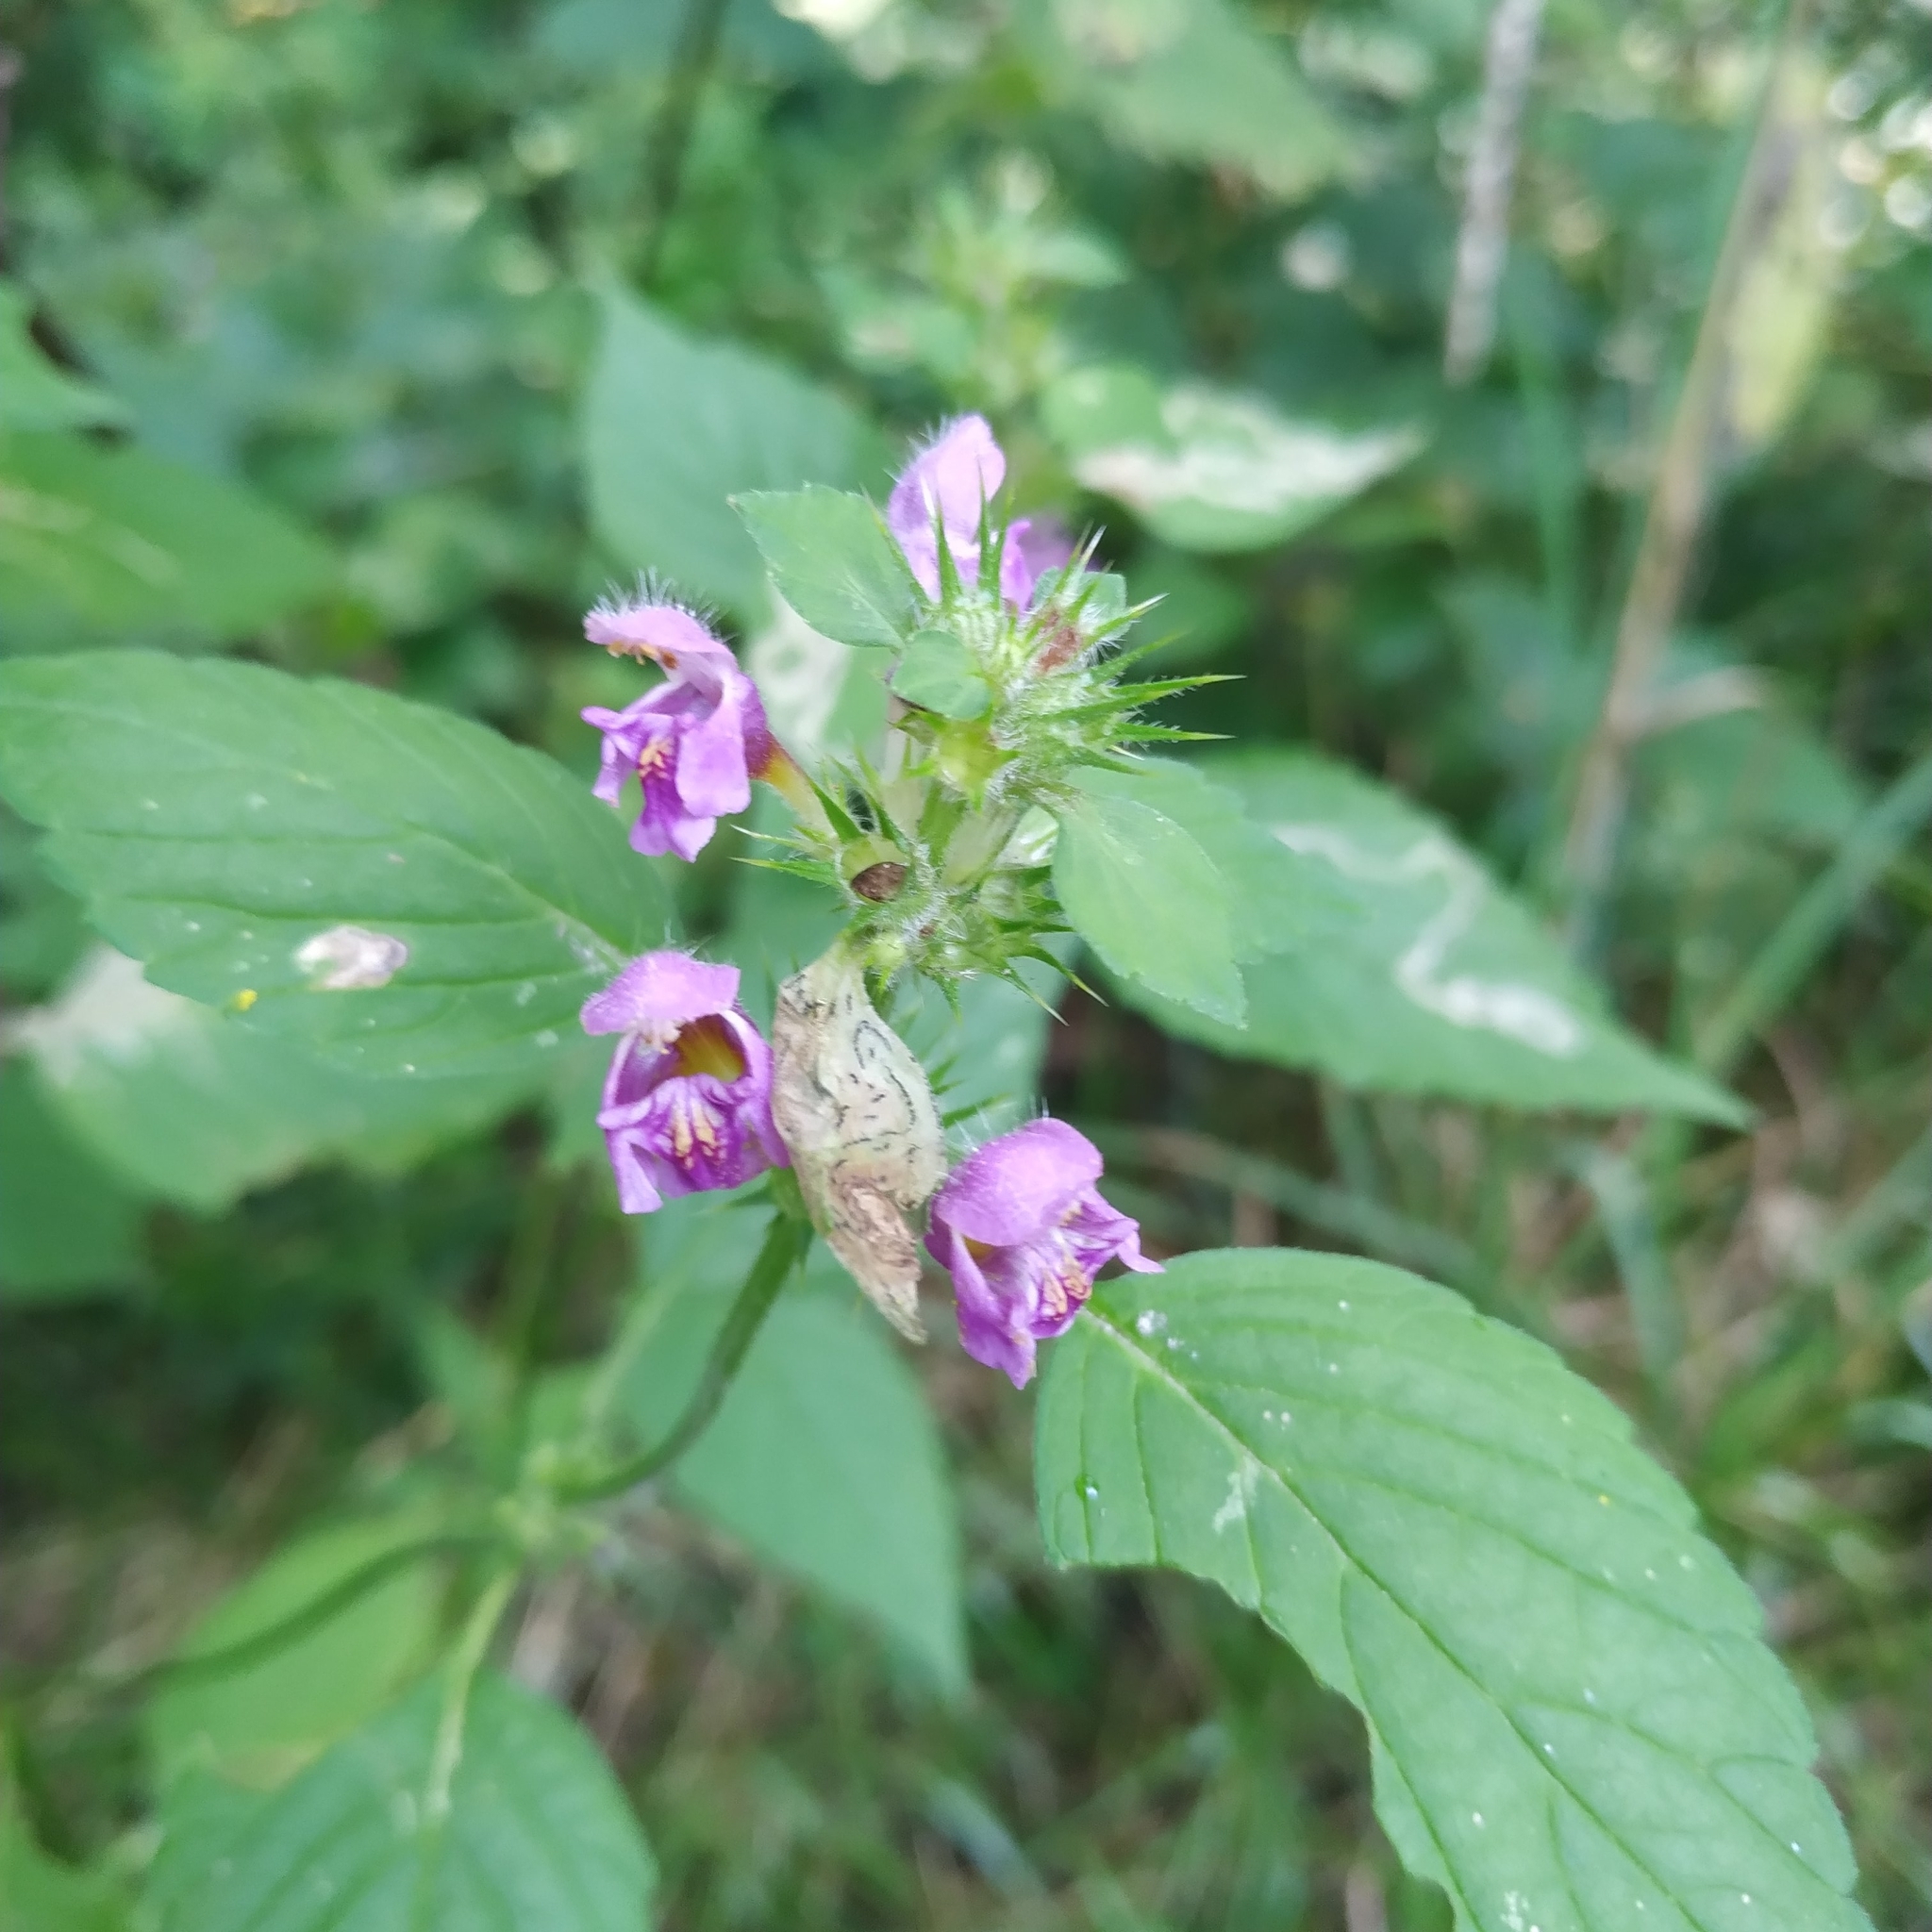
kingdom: Plantae
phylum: Tracheophyta
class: Magnoliopsida
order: Lamiales
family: Lamiaceae
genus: Galeopsis
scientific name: Galeopsis pubescens
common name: Downy hemp-nettle
